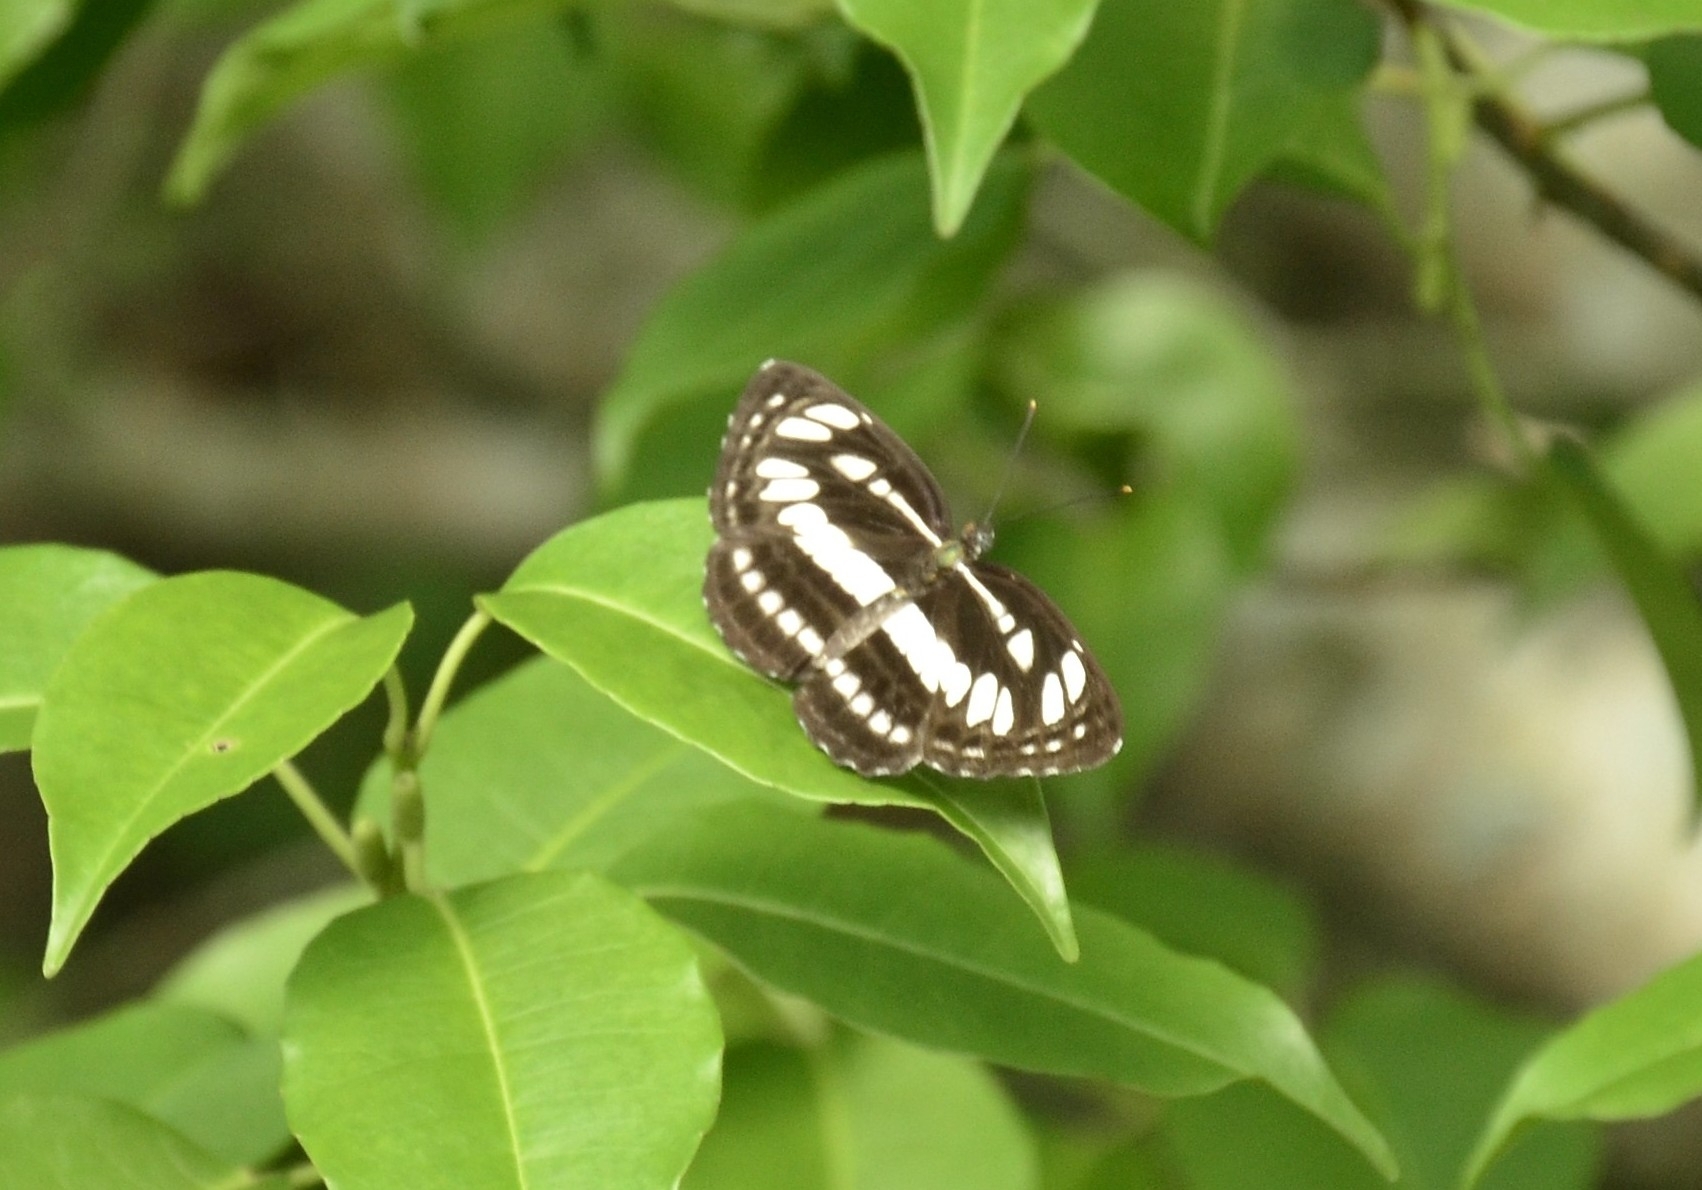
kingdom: Animalia
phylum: Arthropoda
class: Insecta
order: Lepidoptera
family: Nymphalidae
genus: Neptis
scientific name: Neptis hylas
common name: Common sailer
